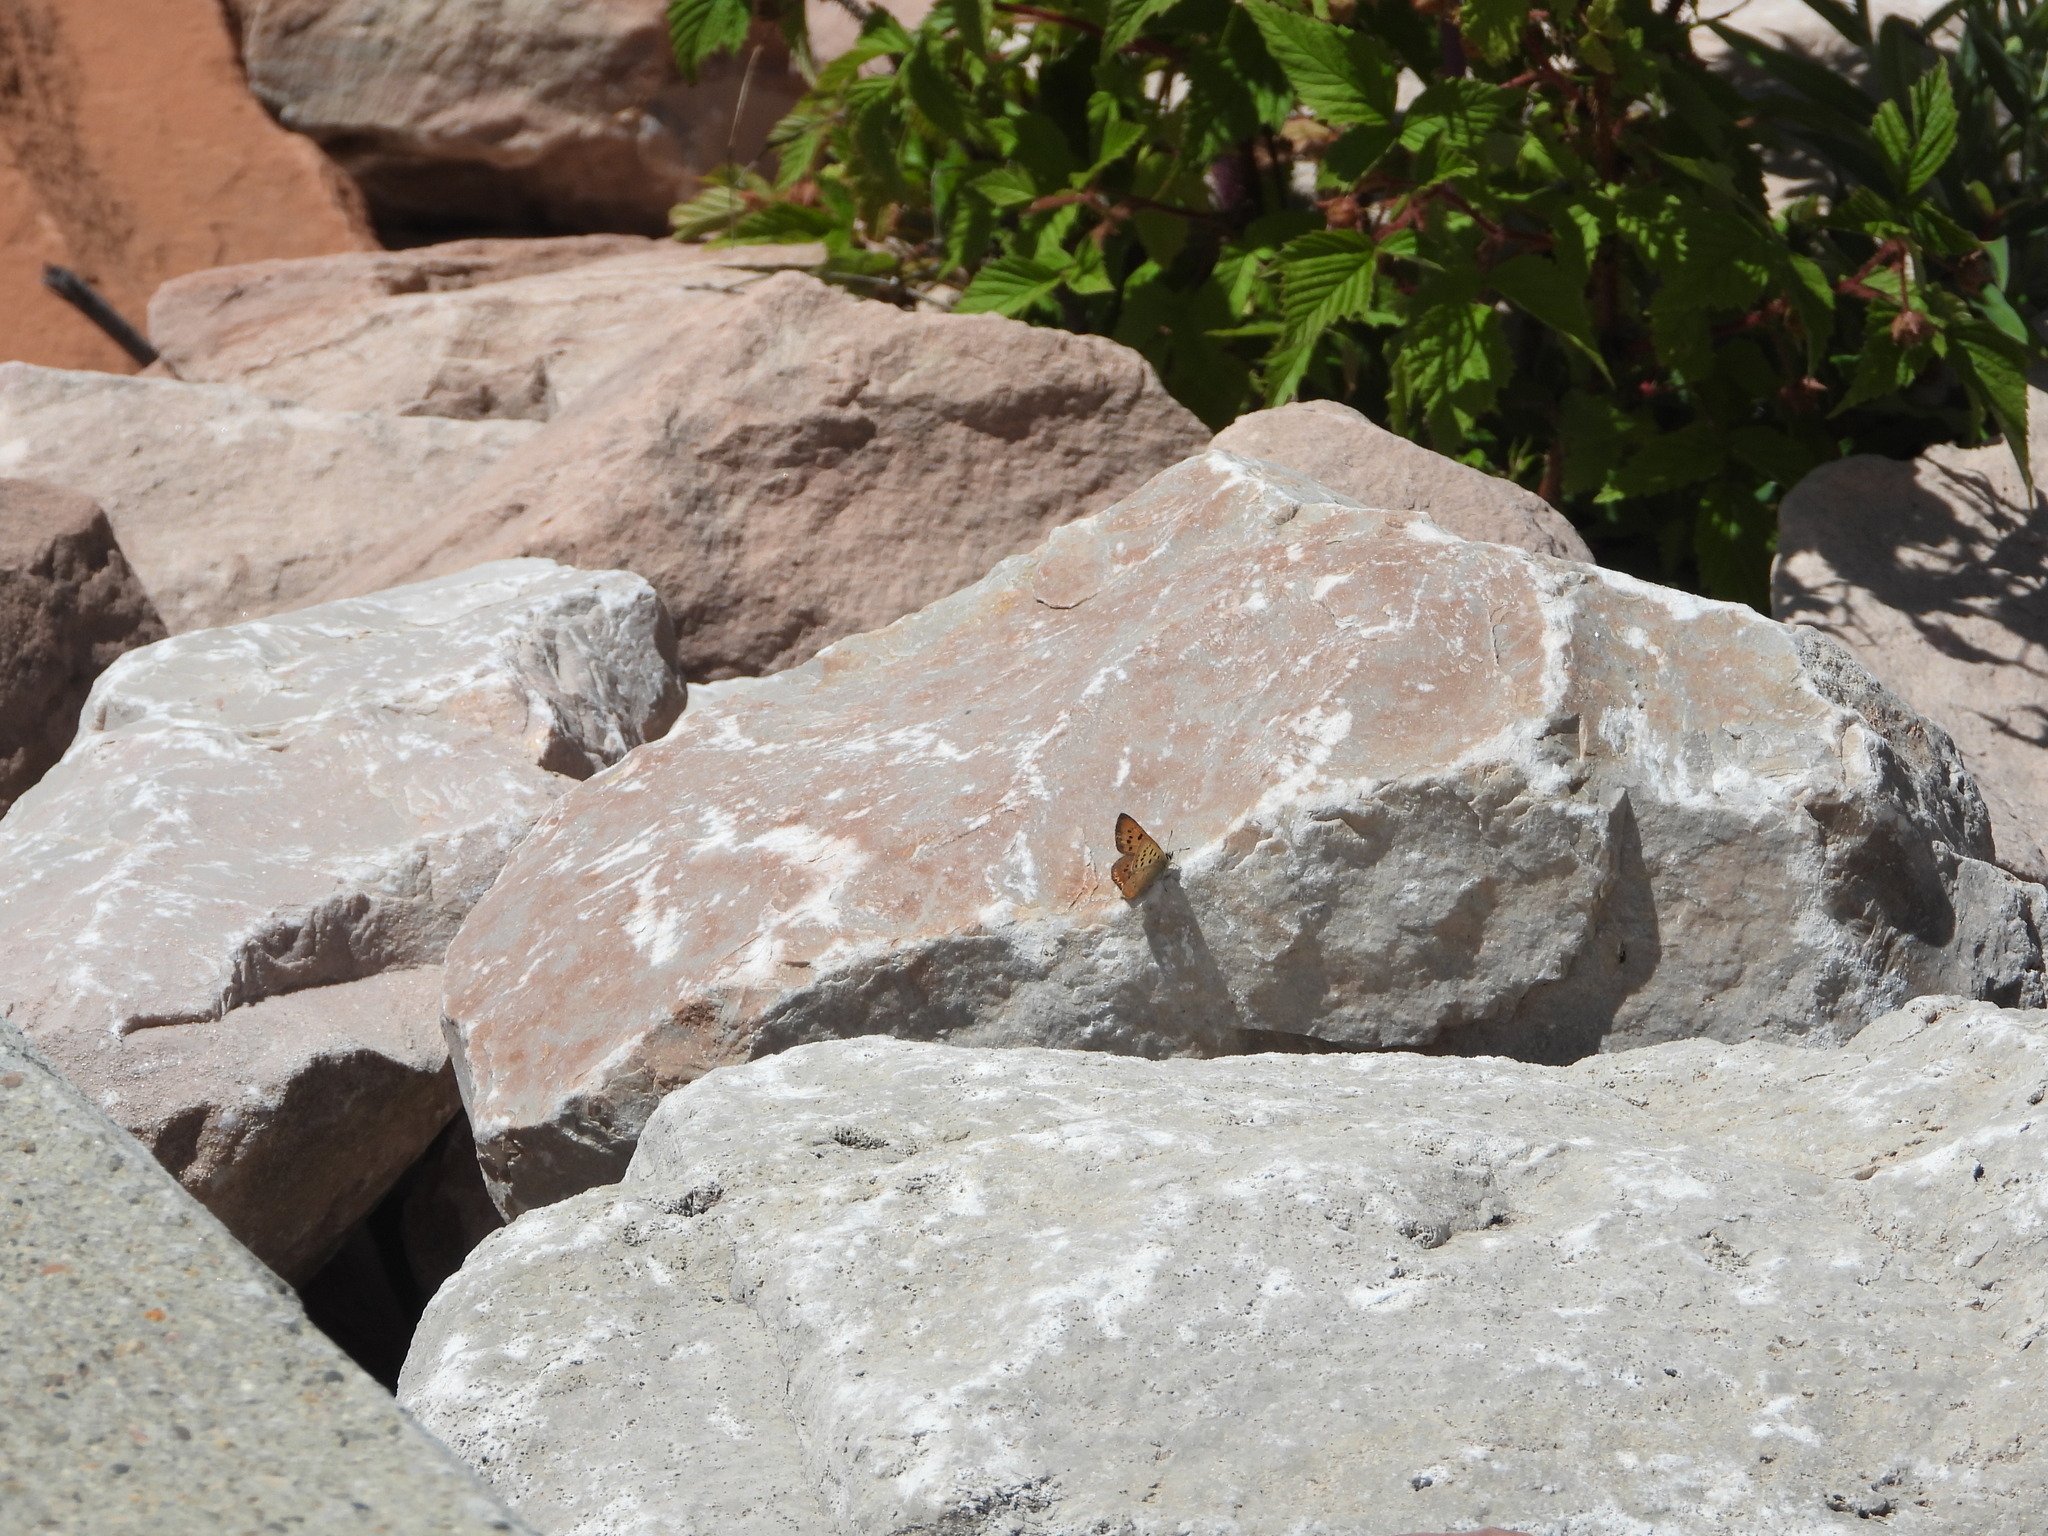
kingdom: Animalia
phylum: Arthropoda
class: Insecta
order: Lepidoptera
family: Lycaenidae
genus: Tharsalea
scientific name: Tharsalea dorcas
